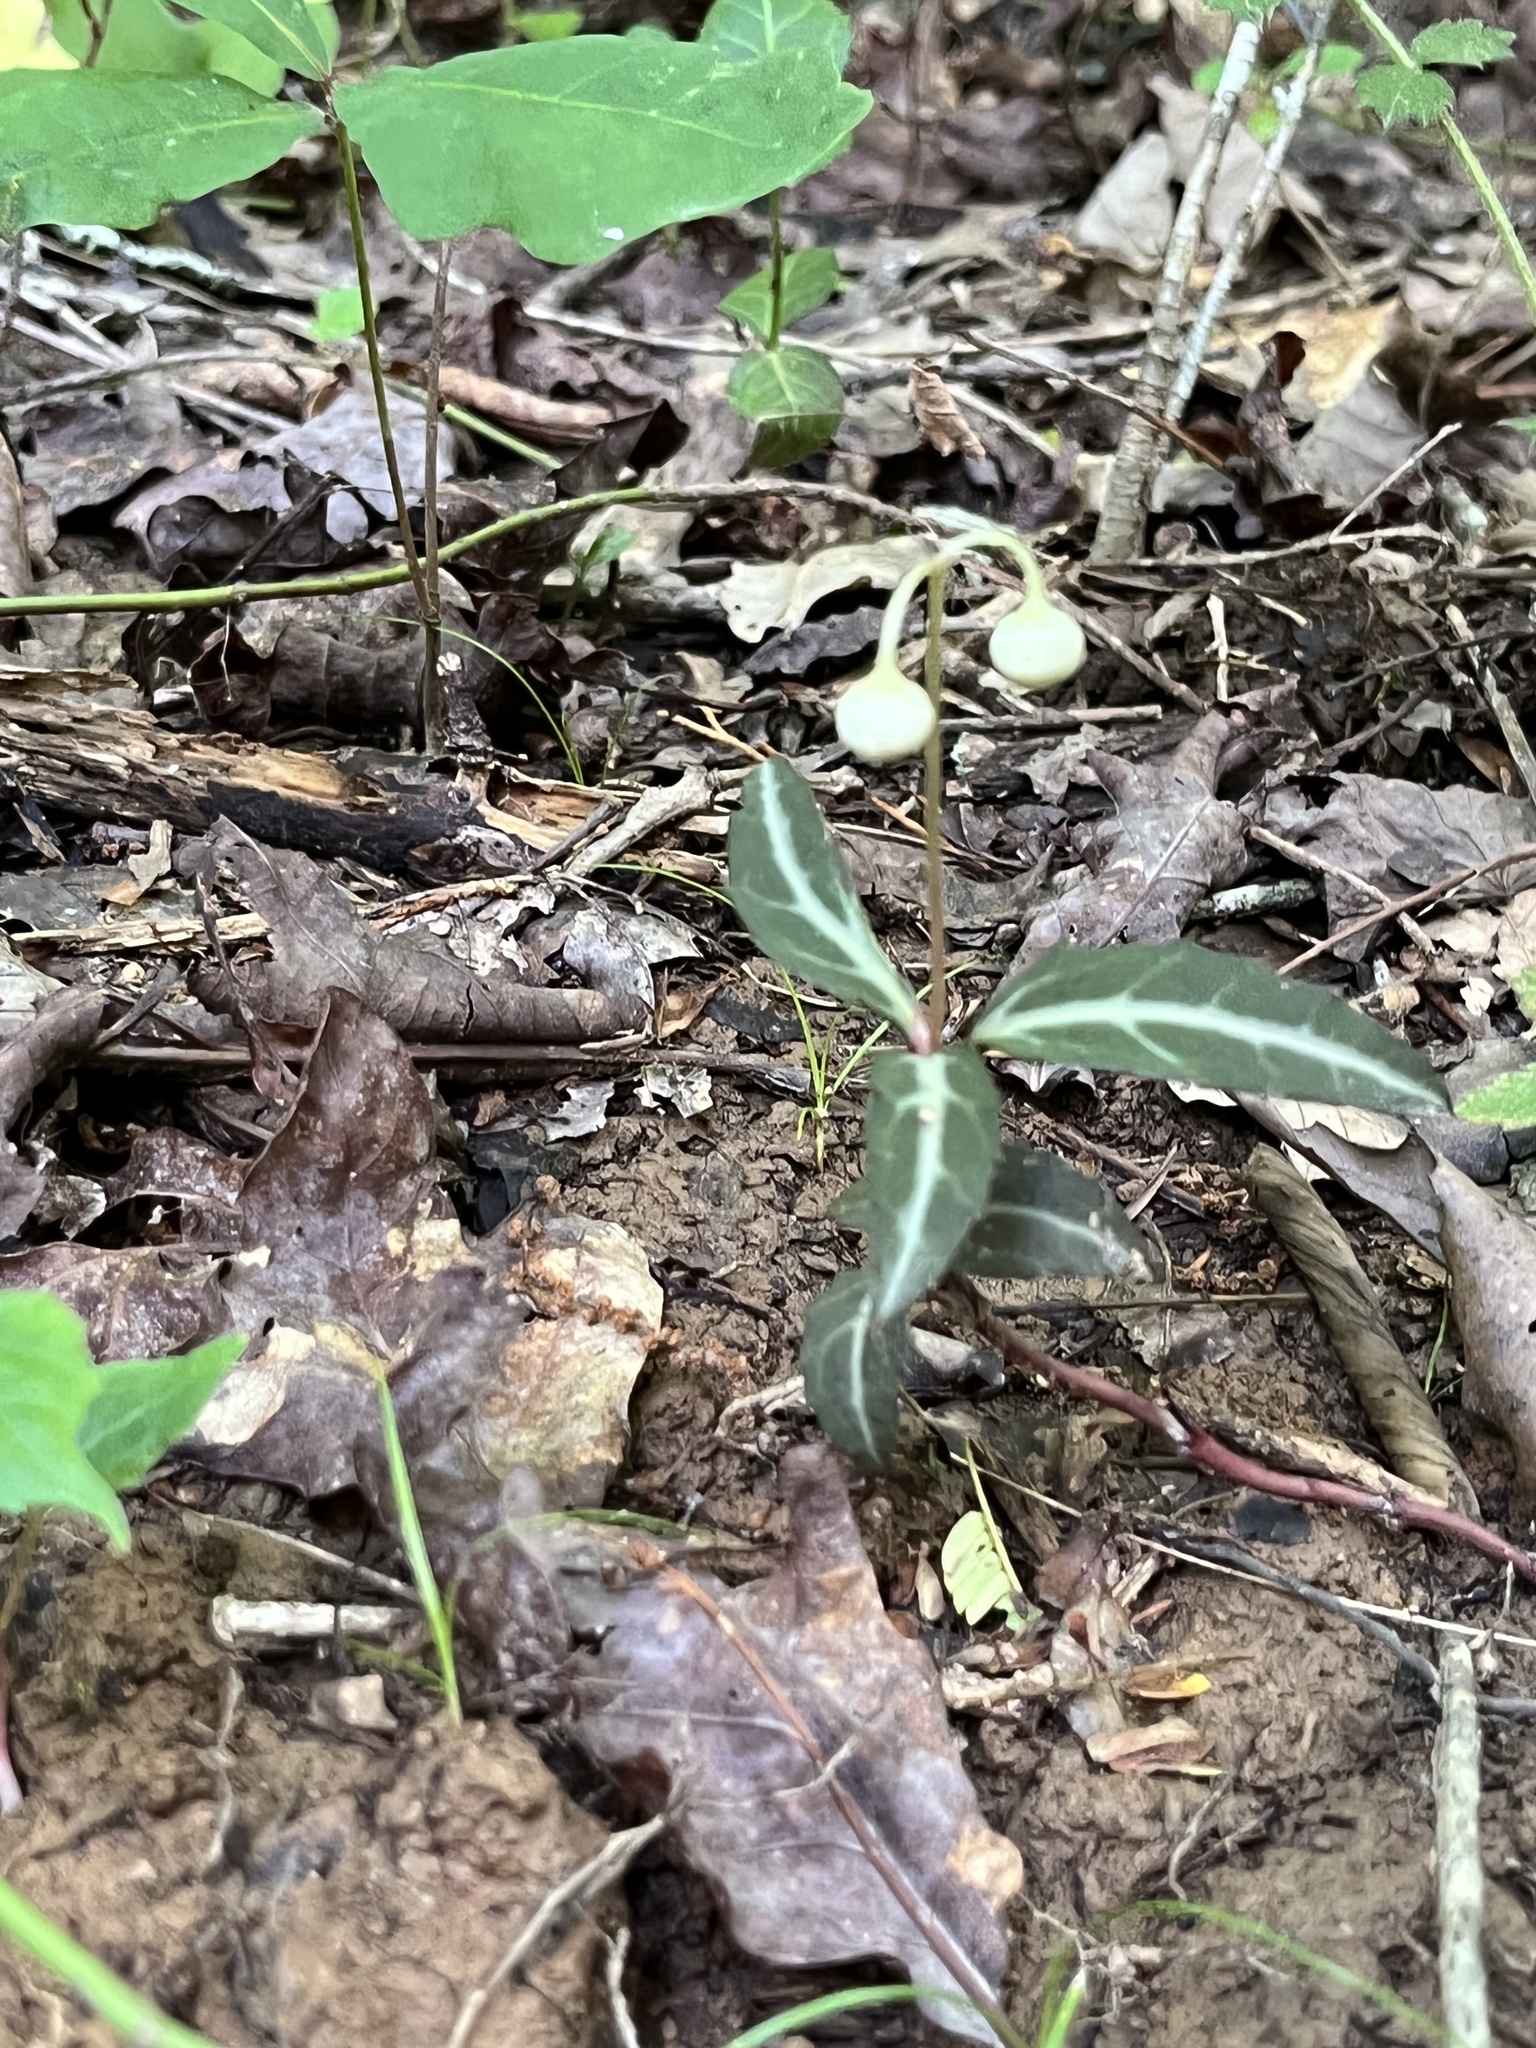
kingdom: Plantae
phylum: Tracheophyta
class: Magnoliopsida
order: Ericales
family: Ericaceae
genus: Chimaphila
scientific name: Chimaphila maculata
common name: Spotted pipsissewa
